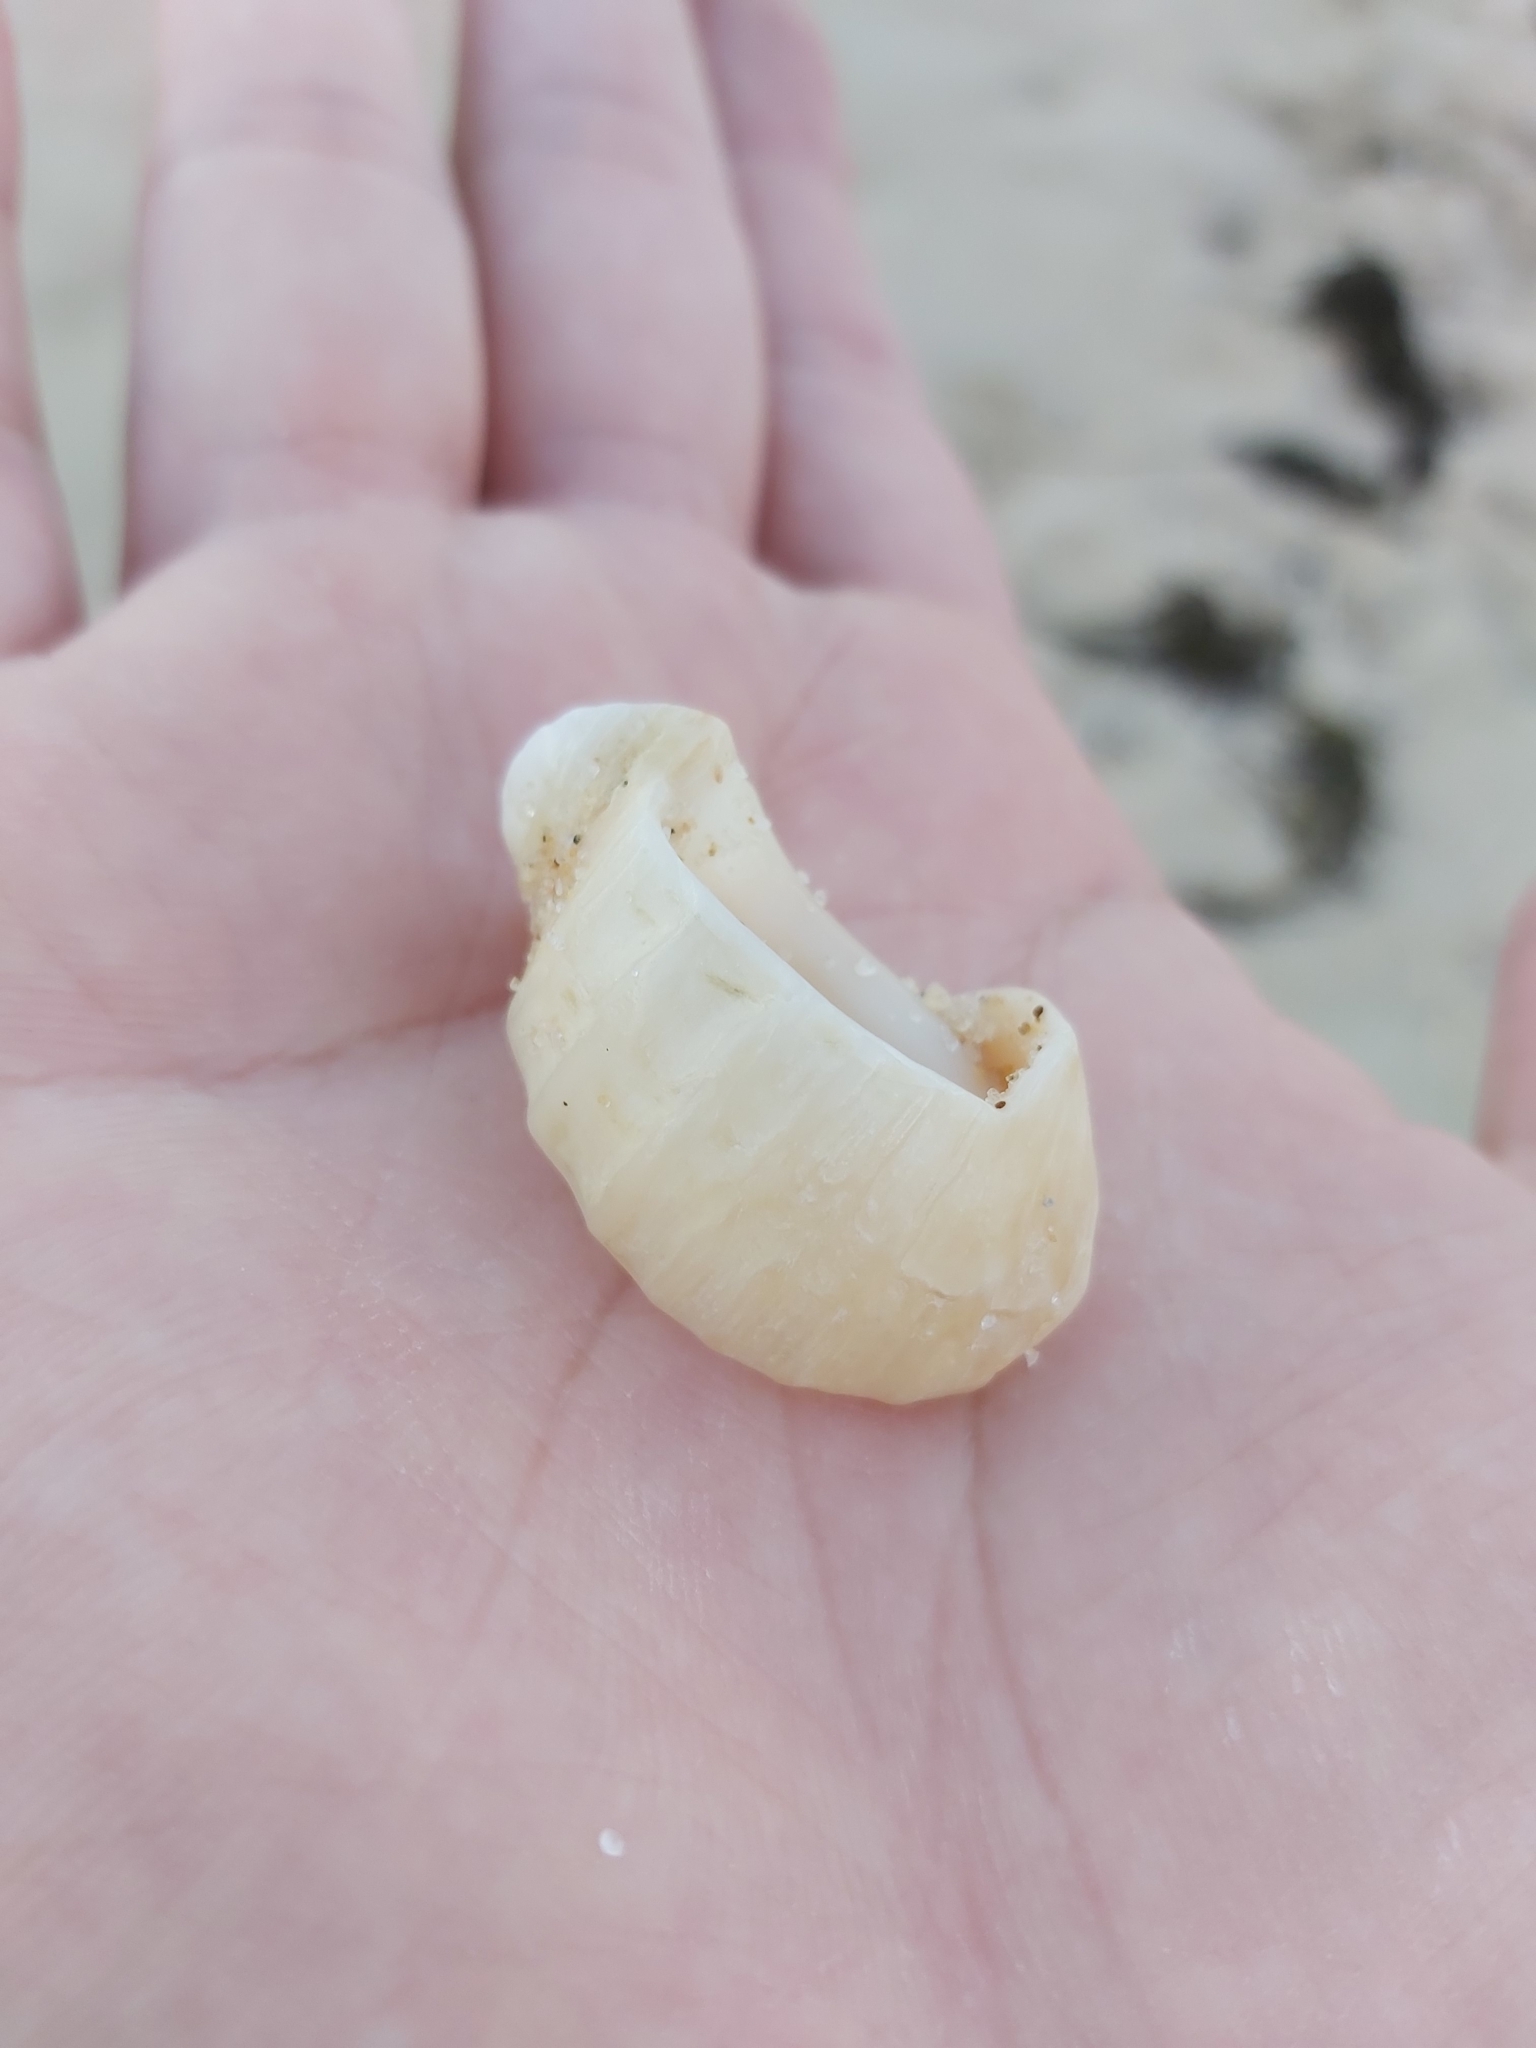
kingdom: Animalia
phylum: Mollusca
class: Gastropoda
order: Neogastropoda
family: Muricidae
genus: Dicathais
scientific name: Dicathais orbita
